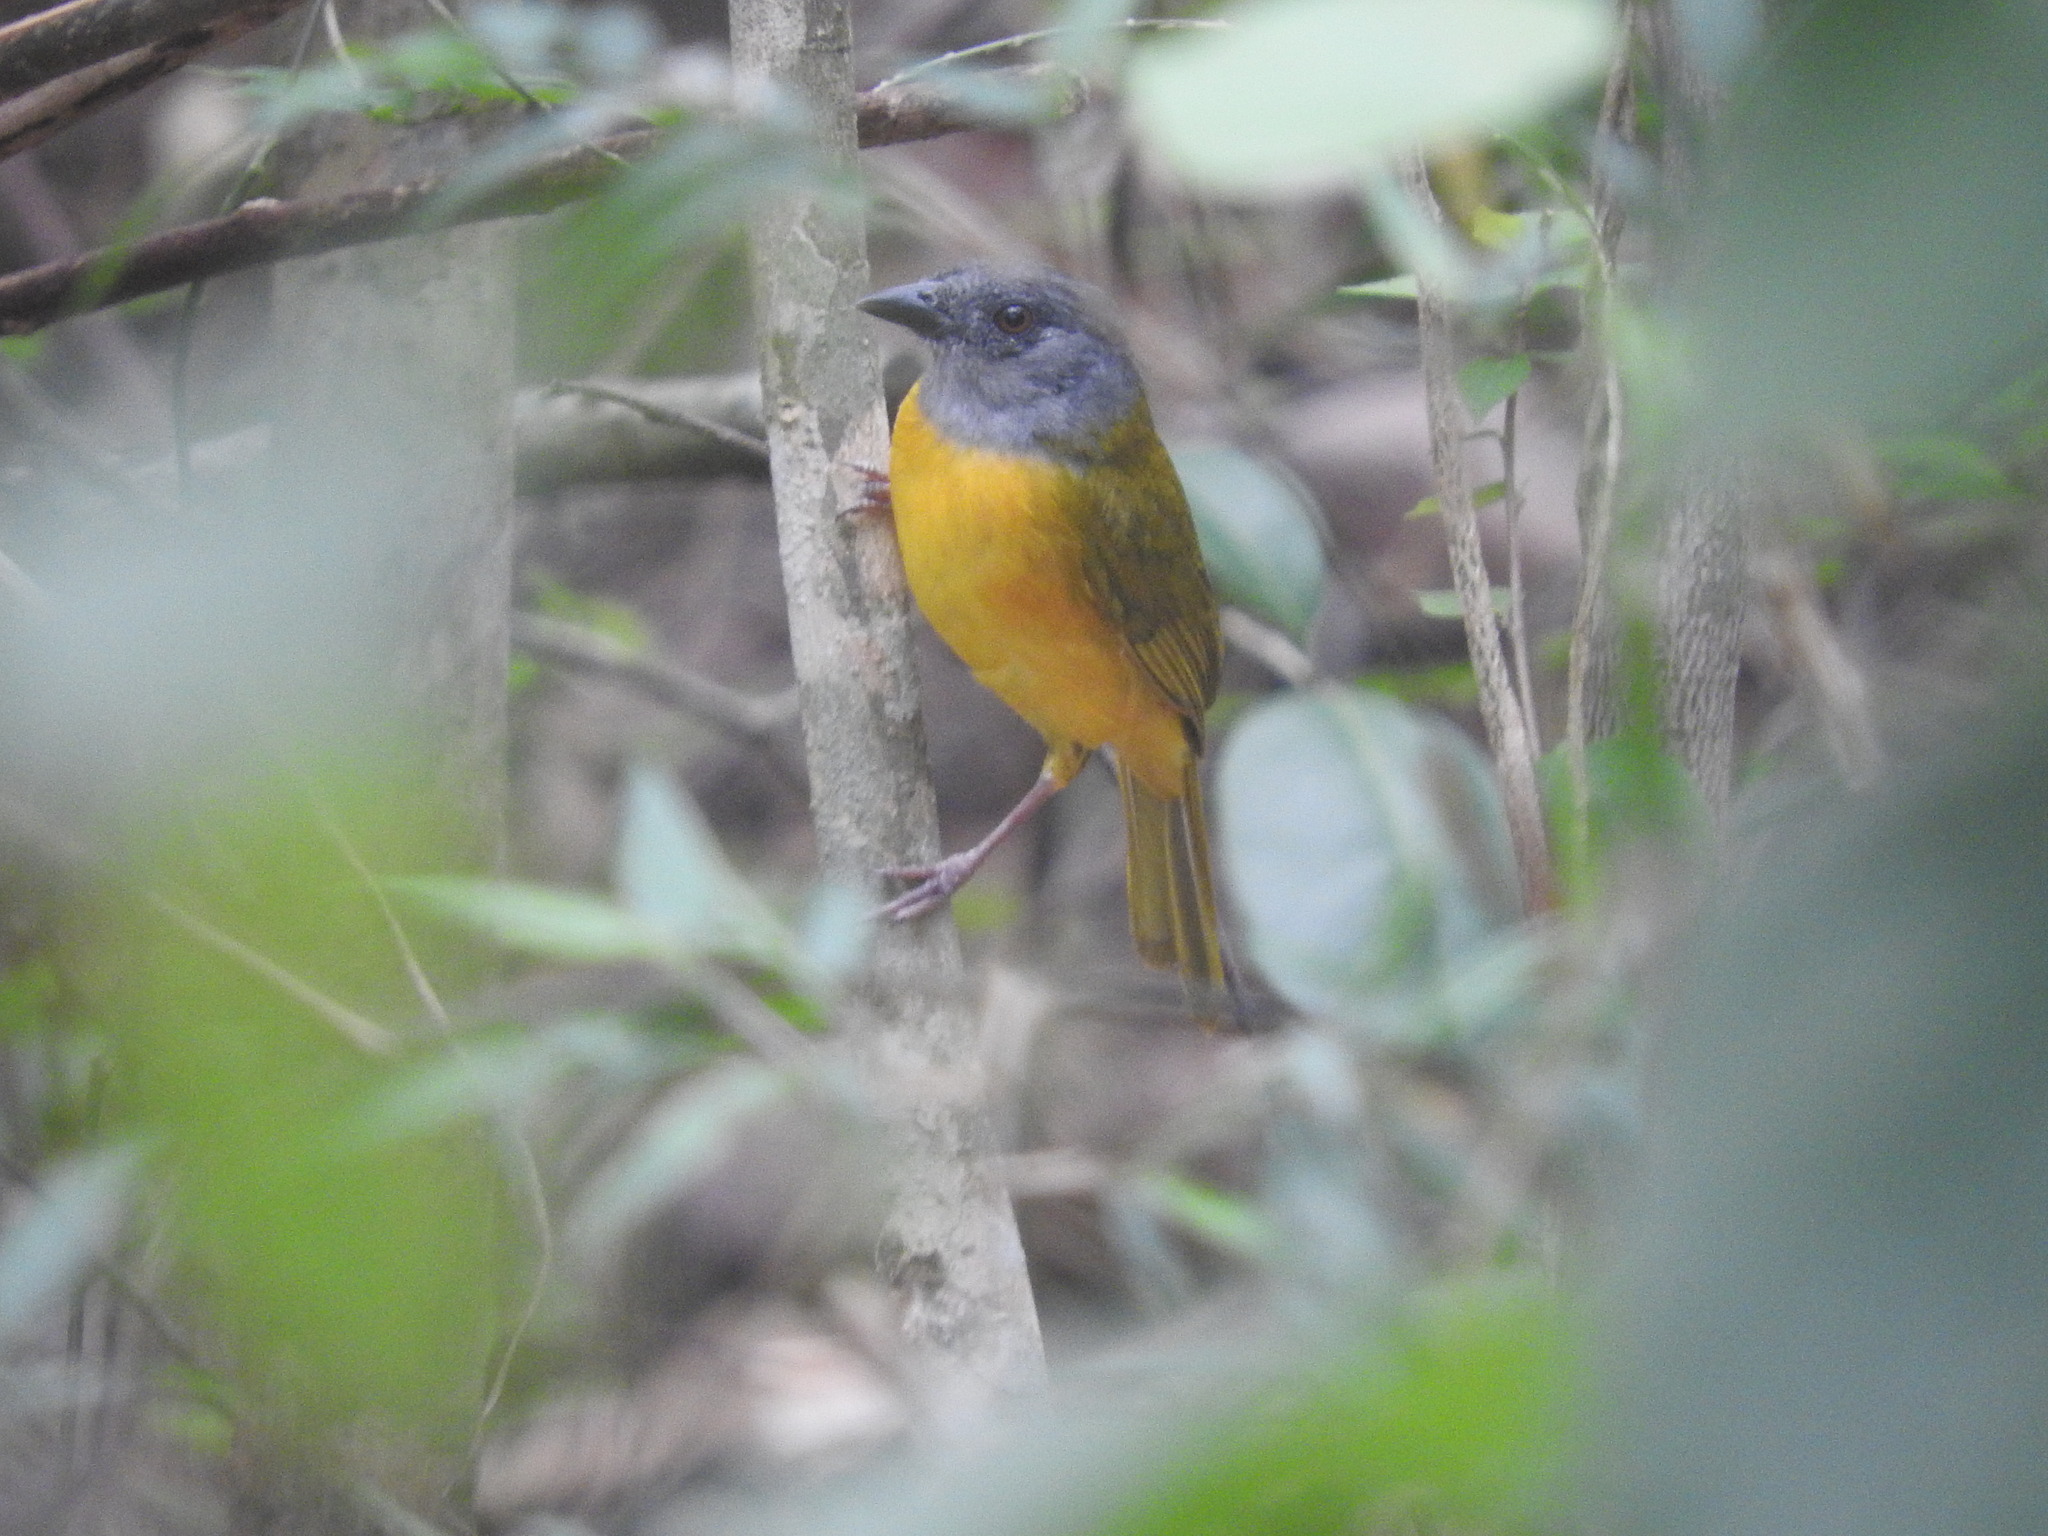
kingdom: Animalia
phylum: Chordata
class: Aves
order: Passeriformes
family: Thraupidae
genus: Eucometis
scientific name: Eucometis penicillata
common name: Grey-headed tanager
